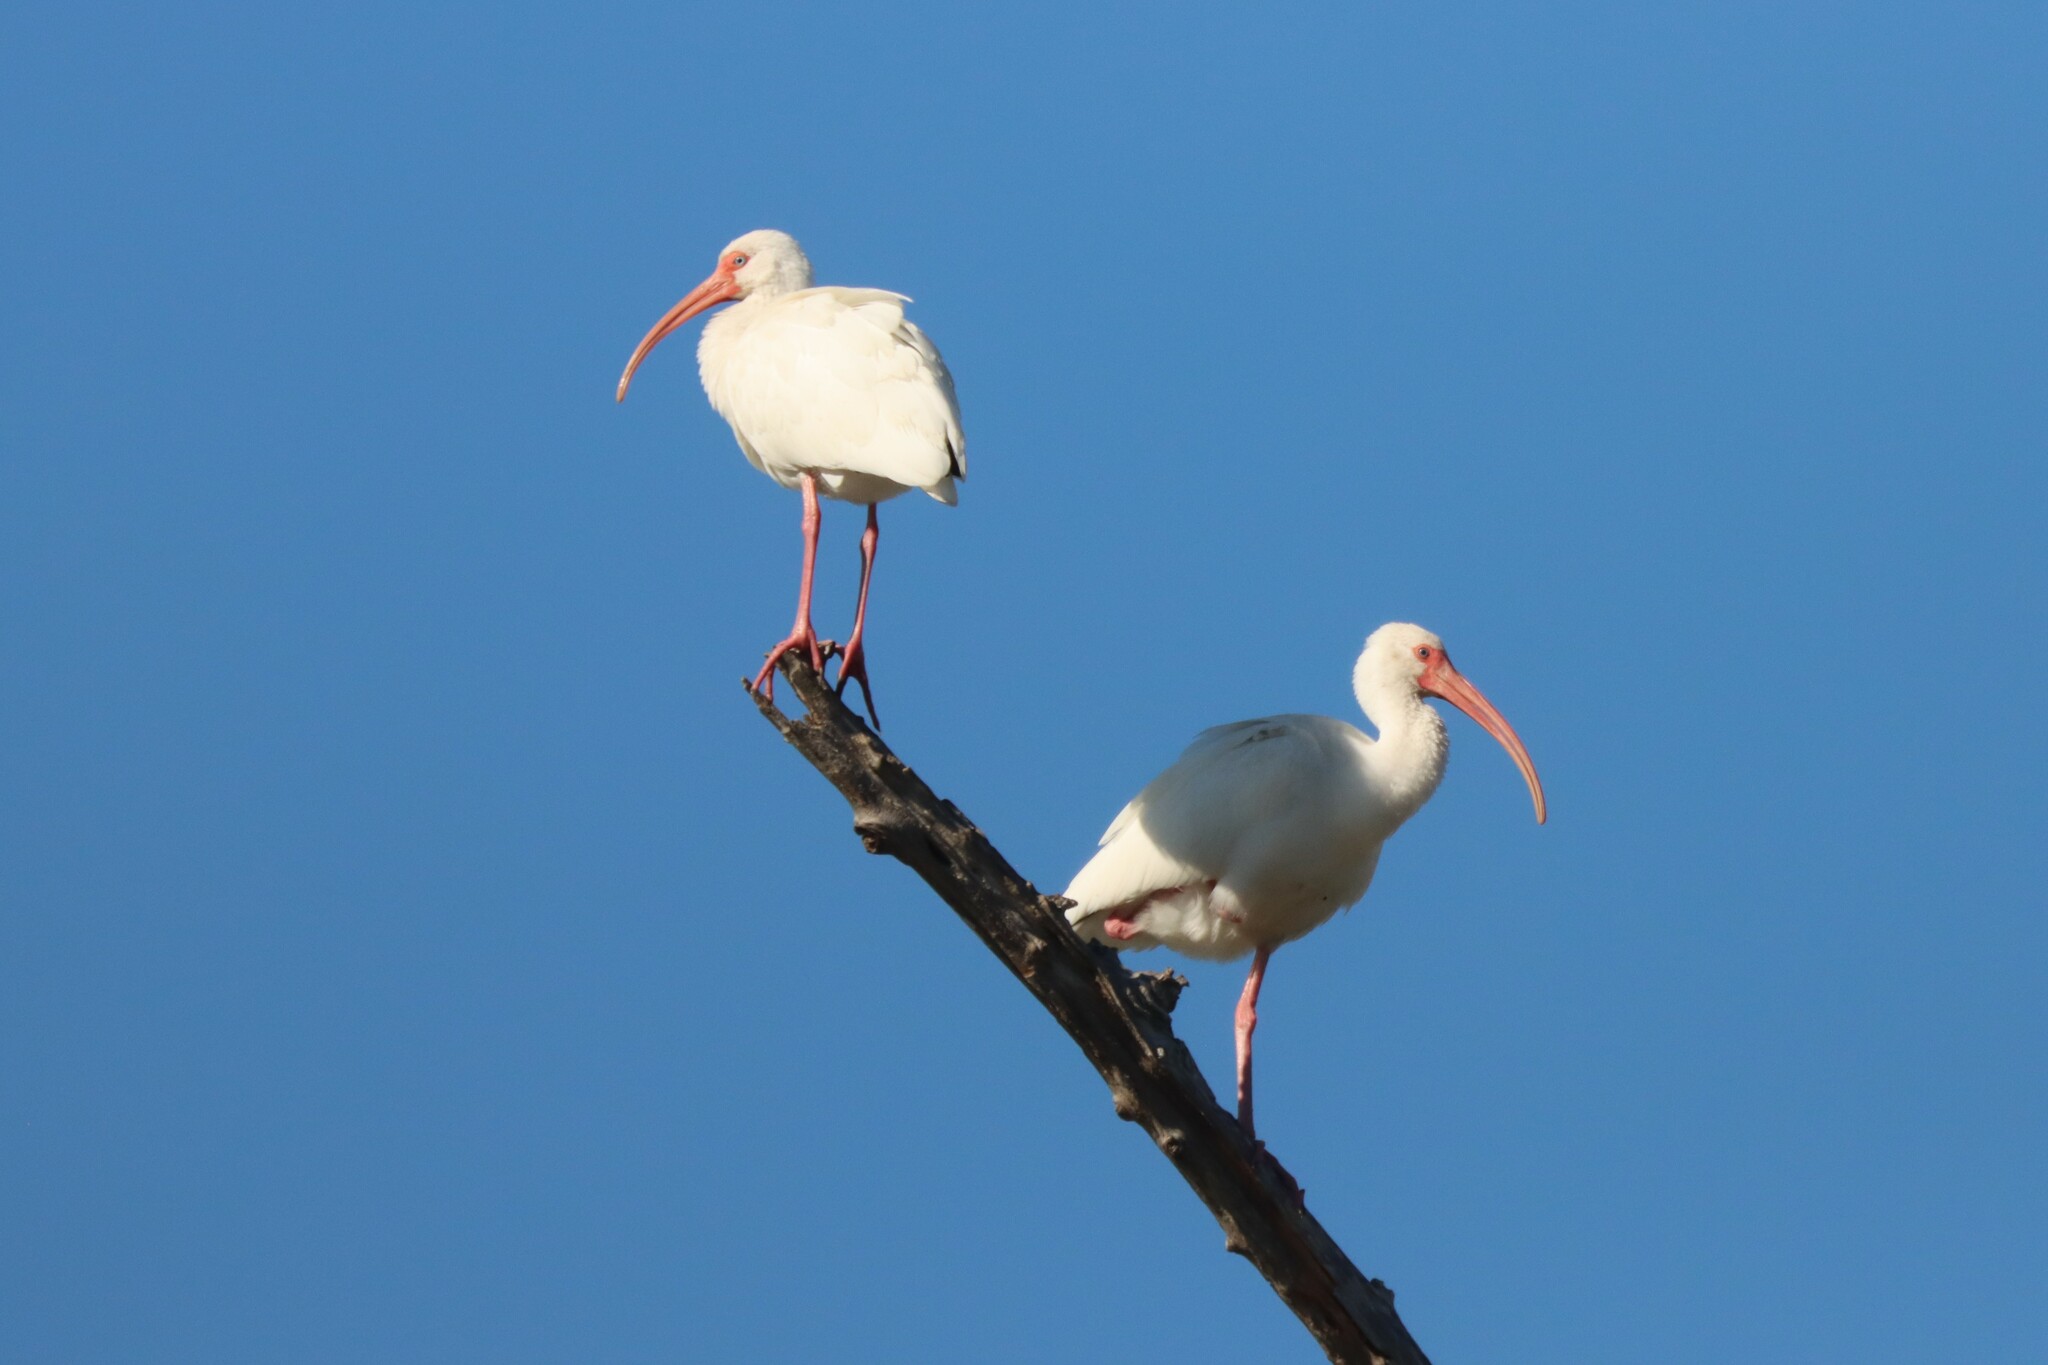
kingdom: Animalia
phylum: Chordata
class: Aves
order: Pelecaniformes
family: Threskiornithidae
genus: Eudocimus
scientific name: Eudocimus albus
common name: White ibis
